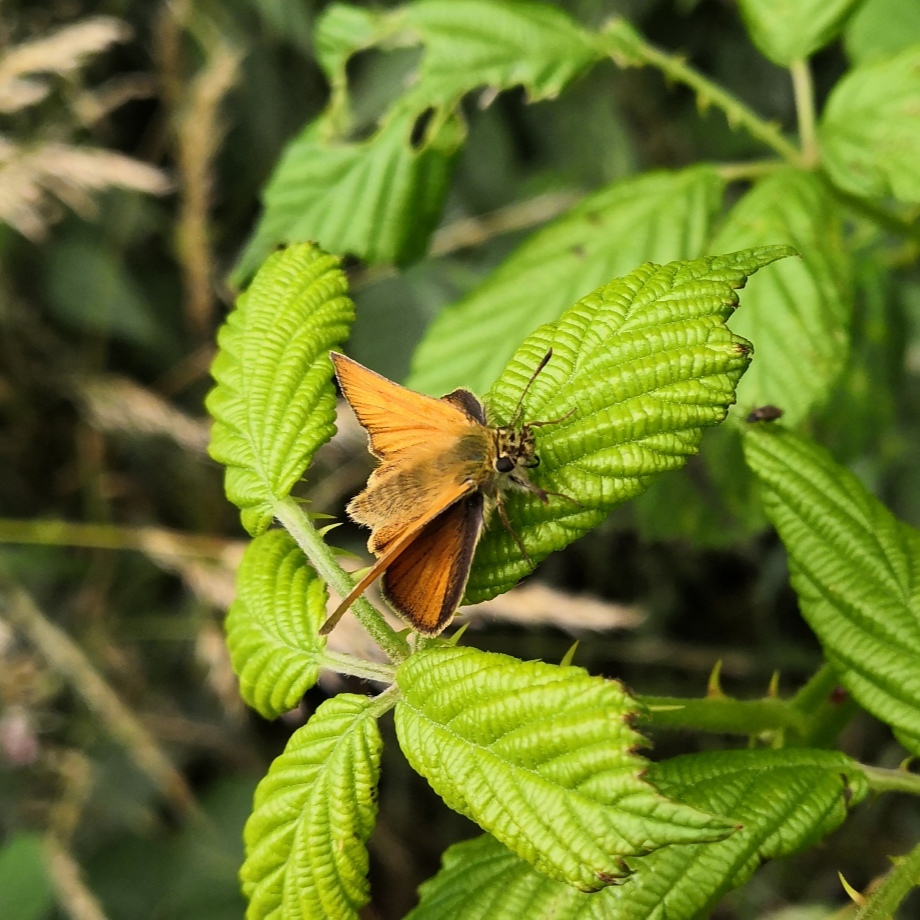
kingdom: Animalia
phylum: Arthropoda
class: Insecta
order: Lepidoptera
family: Hesperiidae
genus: Thymelicus
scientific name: Thymelicus sylvestris
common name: Small skipper
